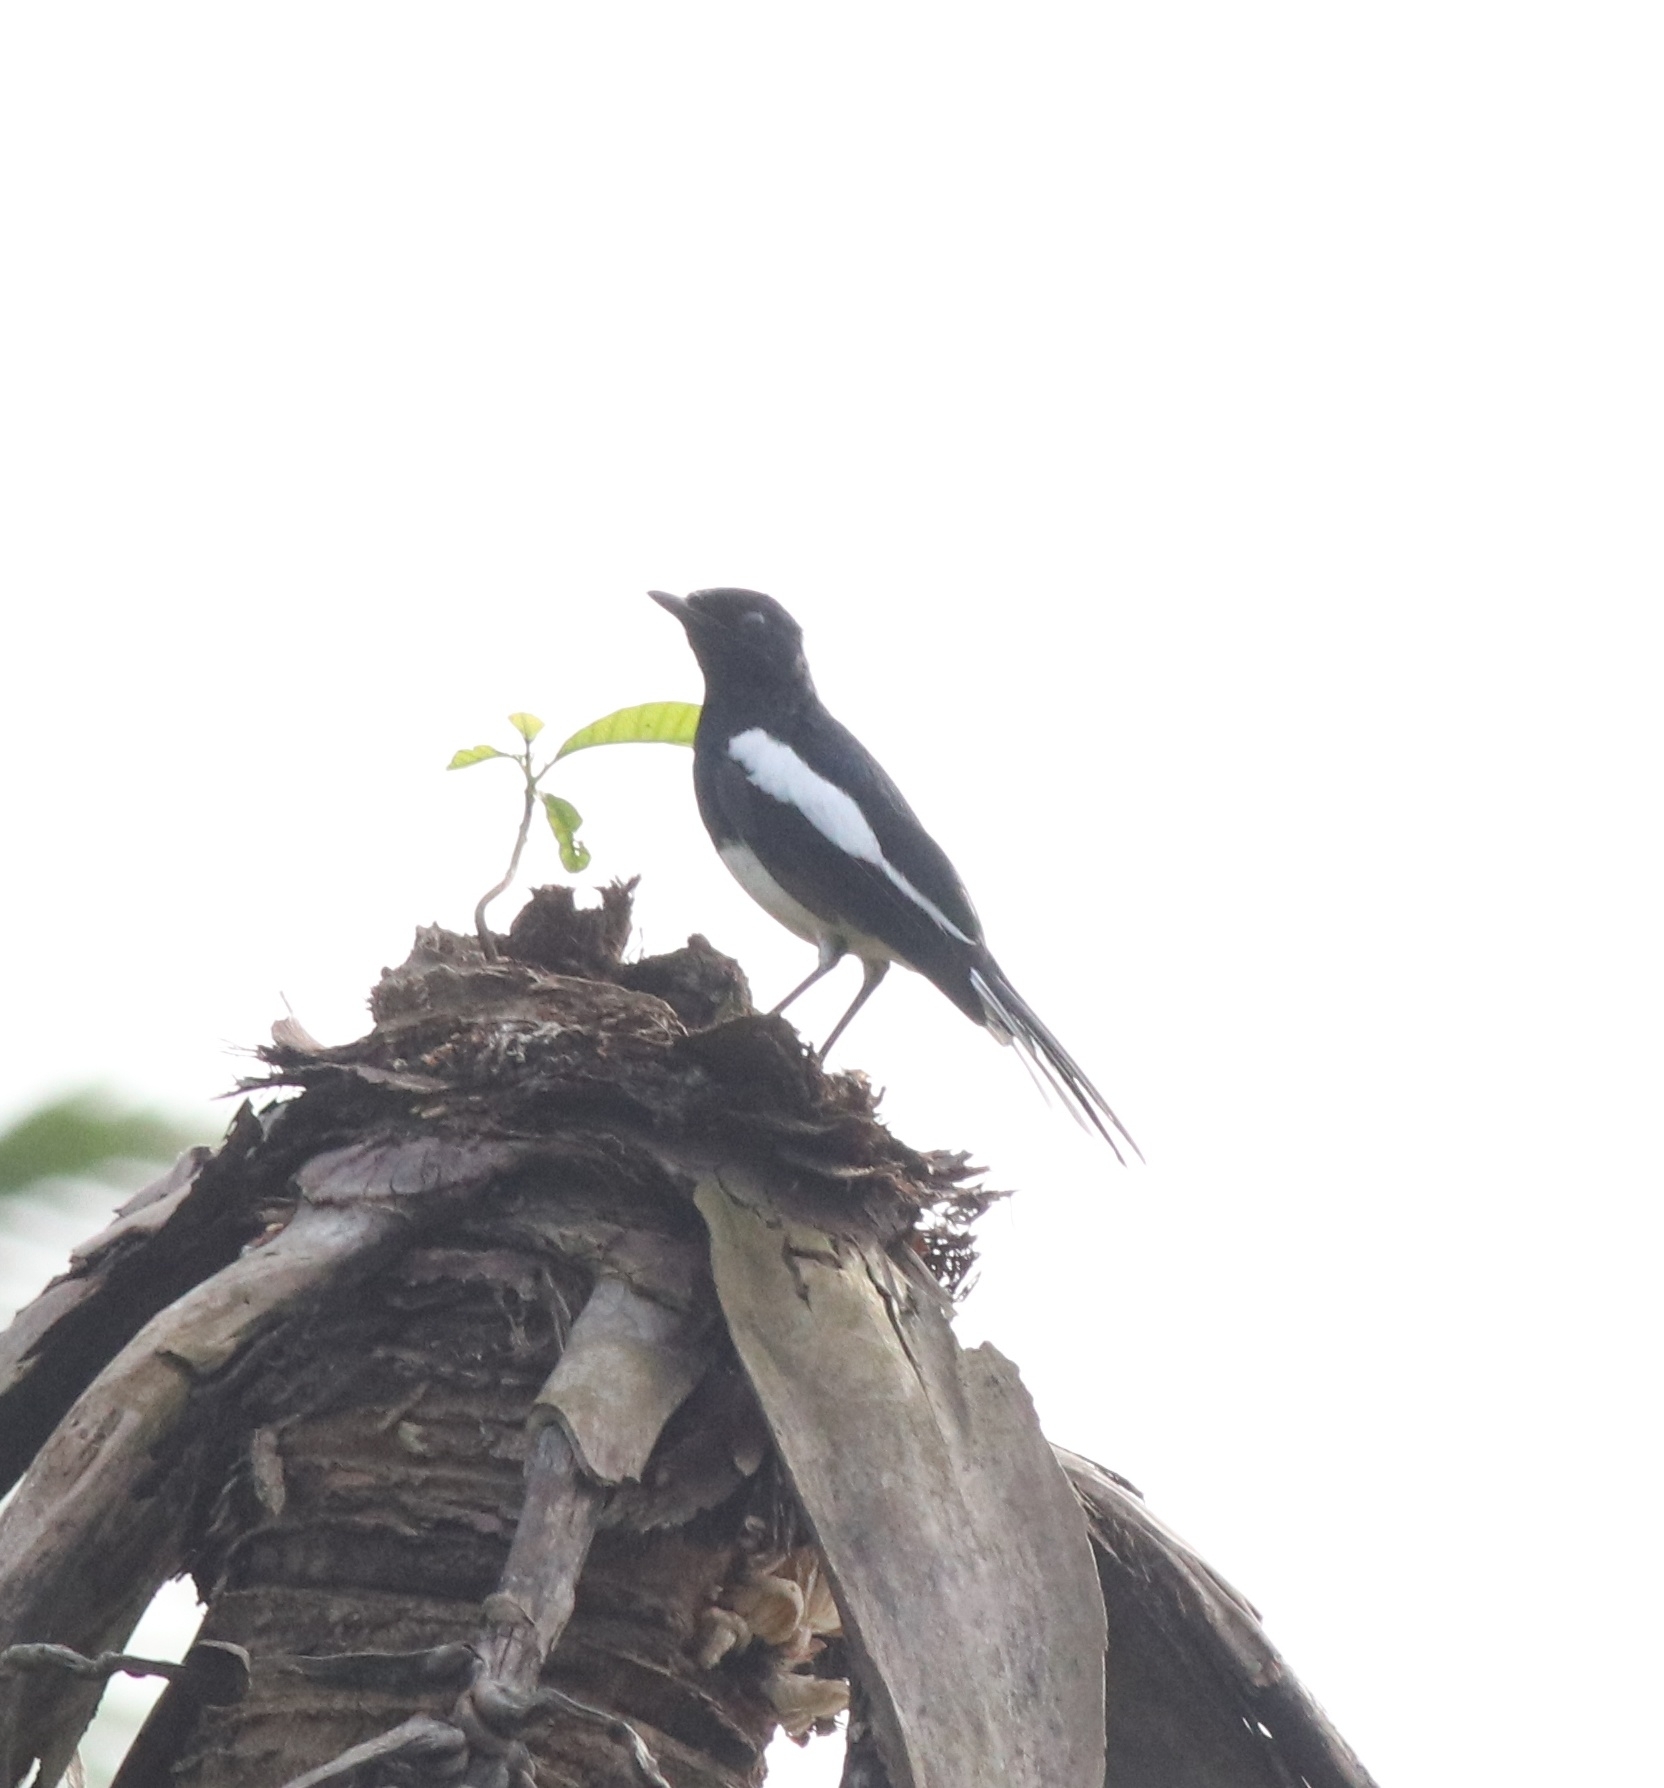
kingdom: Animalia
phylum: Chordata
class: Aves
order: Passeriformes
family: Muscicapidae
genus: Copsychus
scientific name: Copsychus saularis
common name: Oriental magpie-robin
